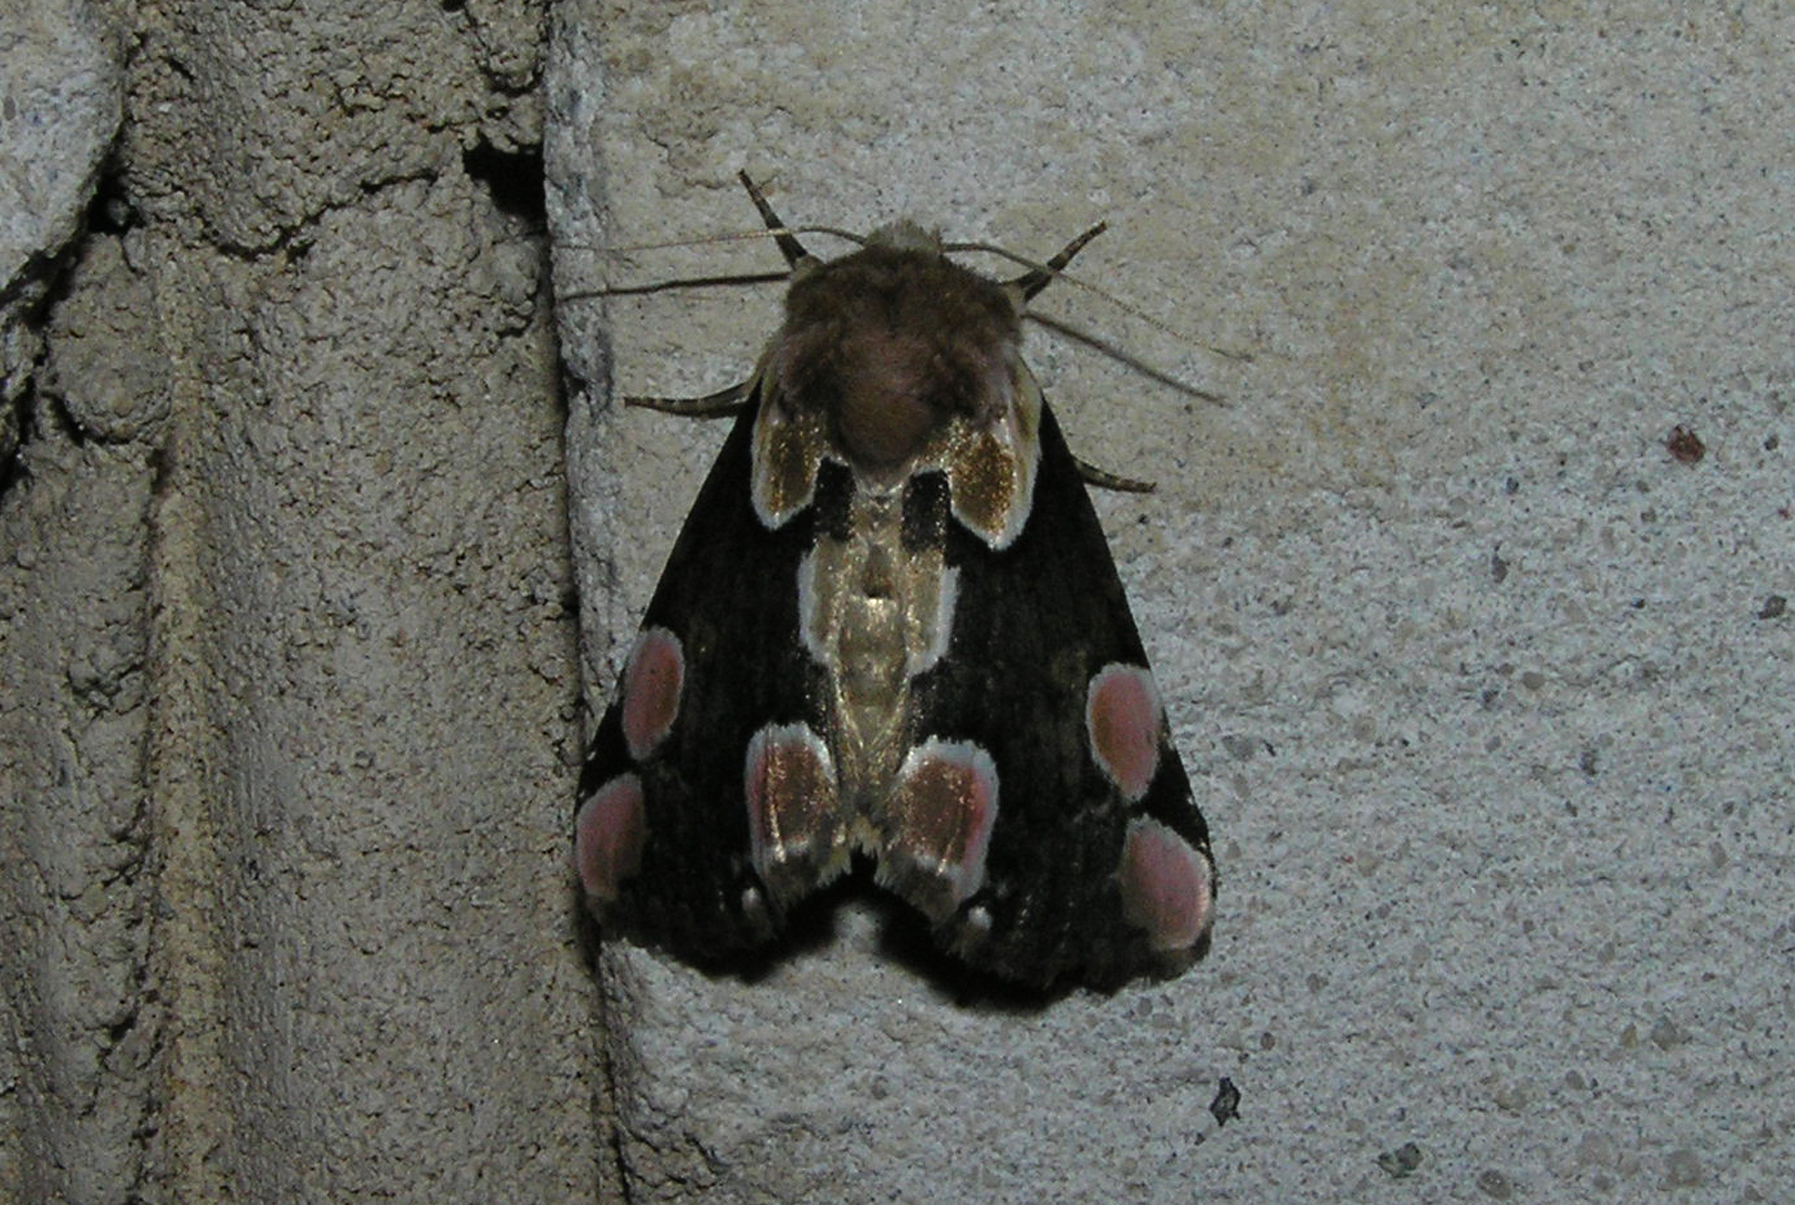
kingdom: Animalia
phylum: Arthropoda
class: Insecta
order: Lepidoptera
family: Drepanidae
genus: Thyatira
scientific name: Thyatira batis
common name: Peach blossom
